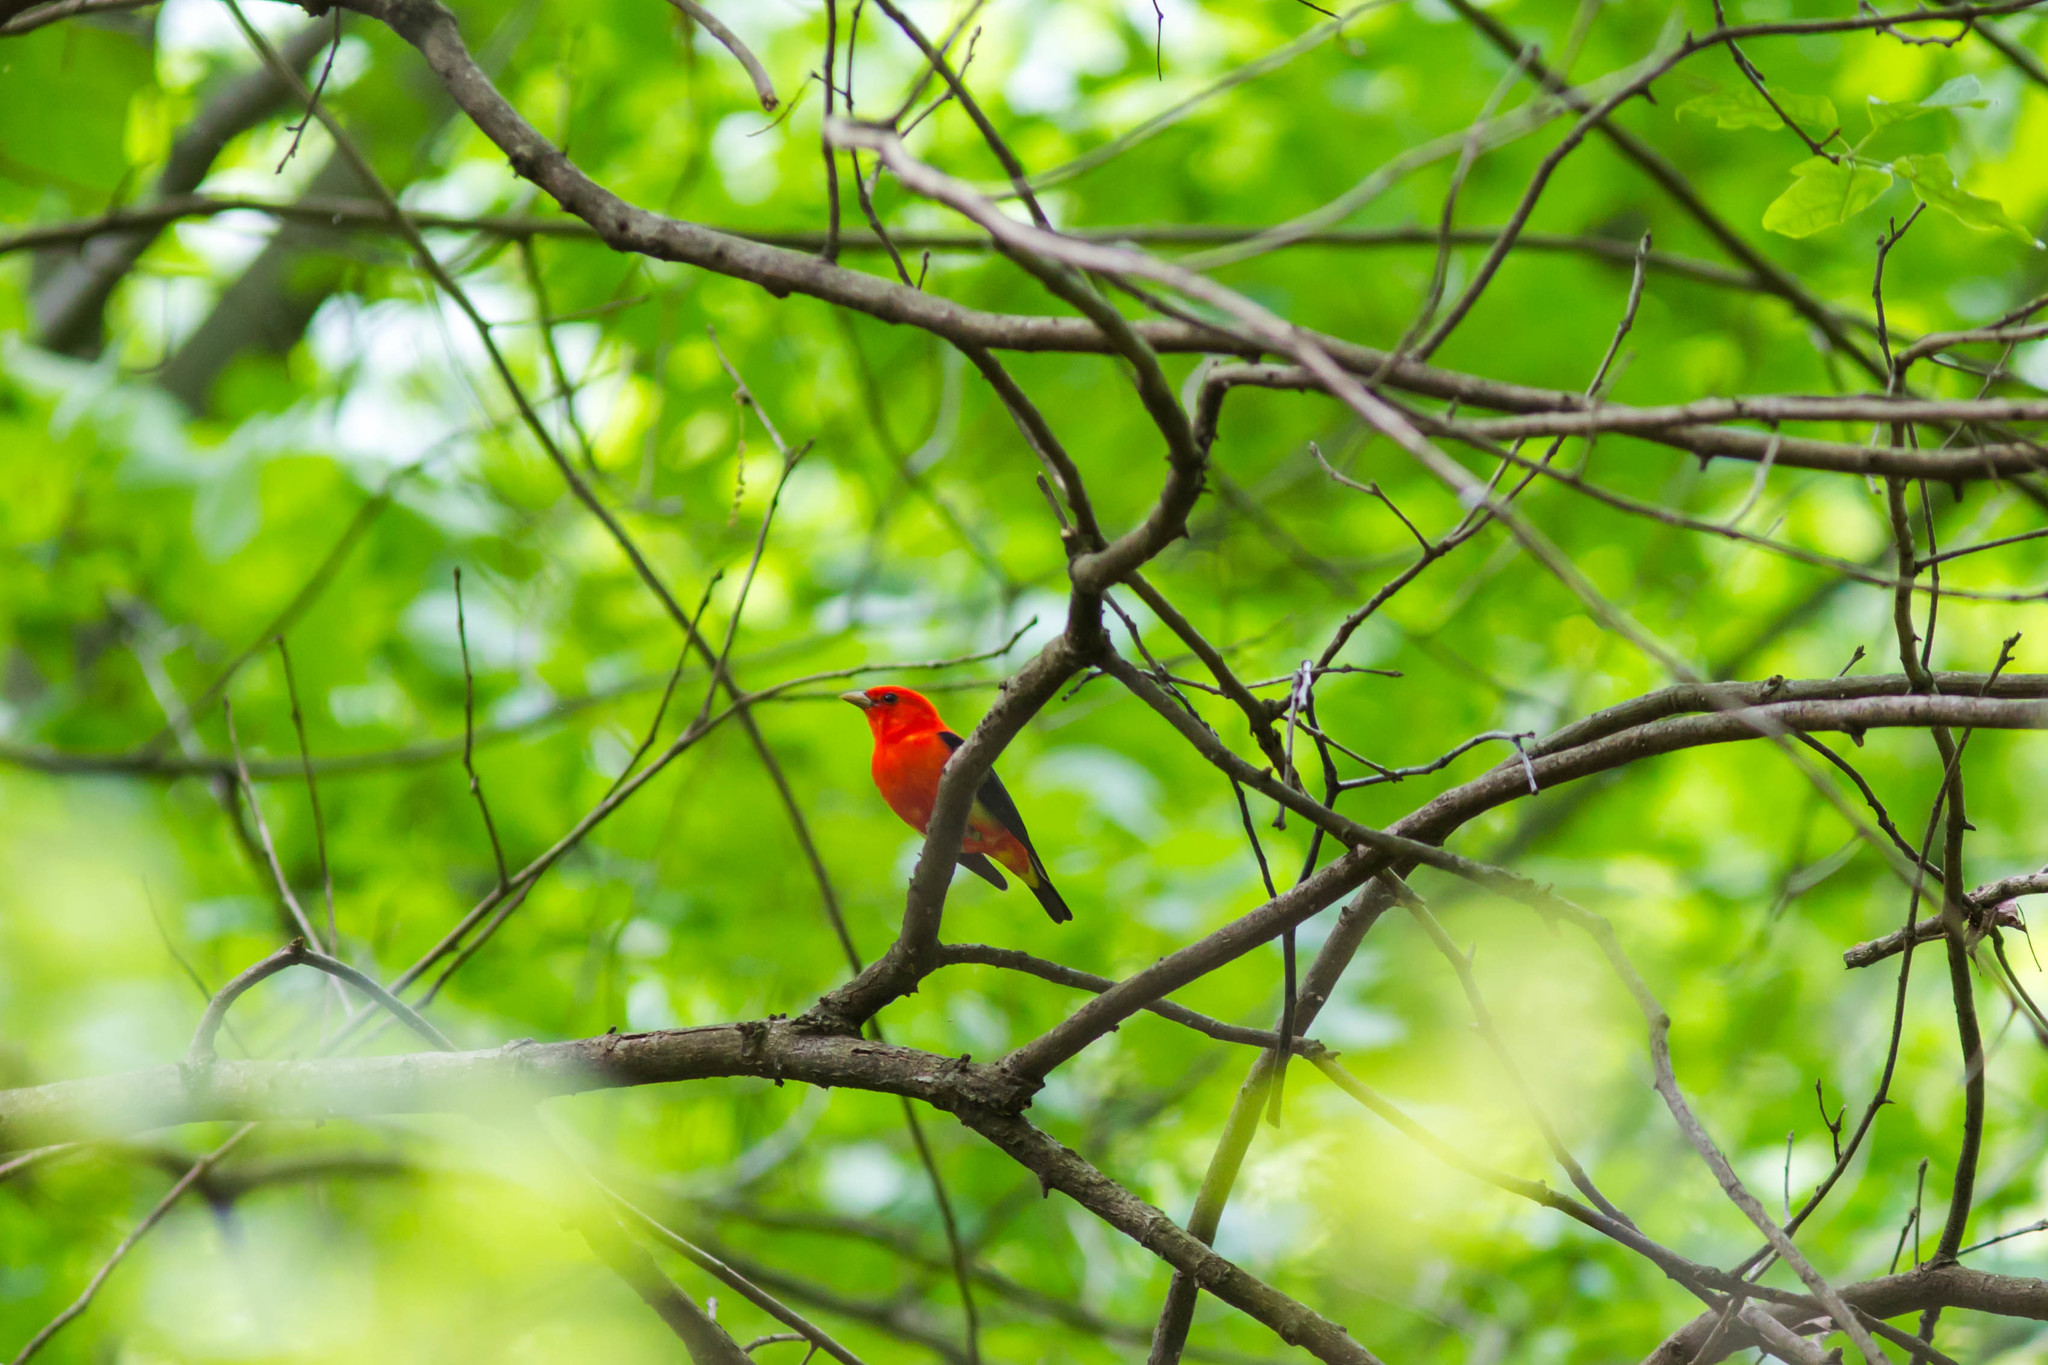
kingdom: Animalia
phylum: Chordata
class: Aves
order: Passeriformes
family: Cardinalidae
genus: Piranga
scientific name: Piranga olivacea
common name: Scarlet tanager
